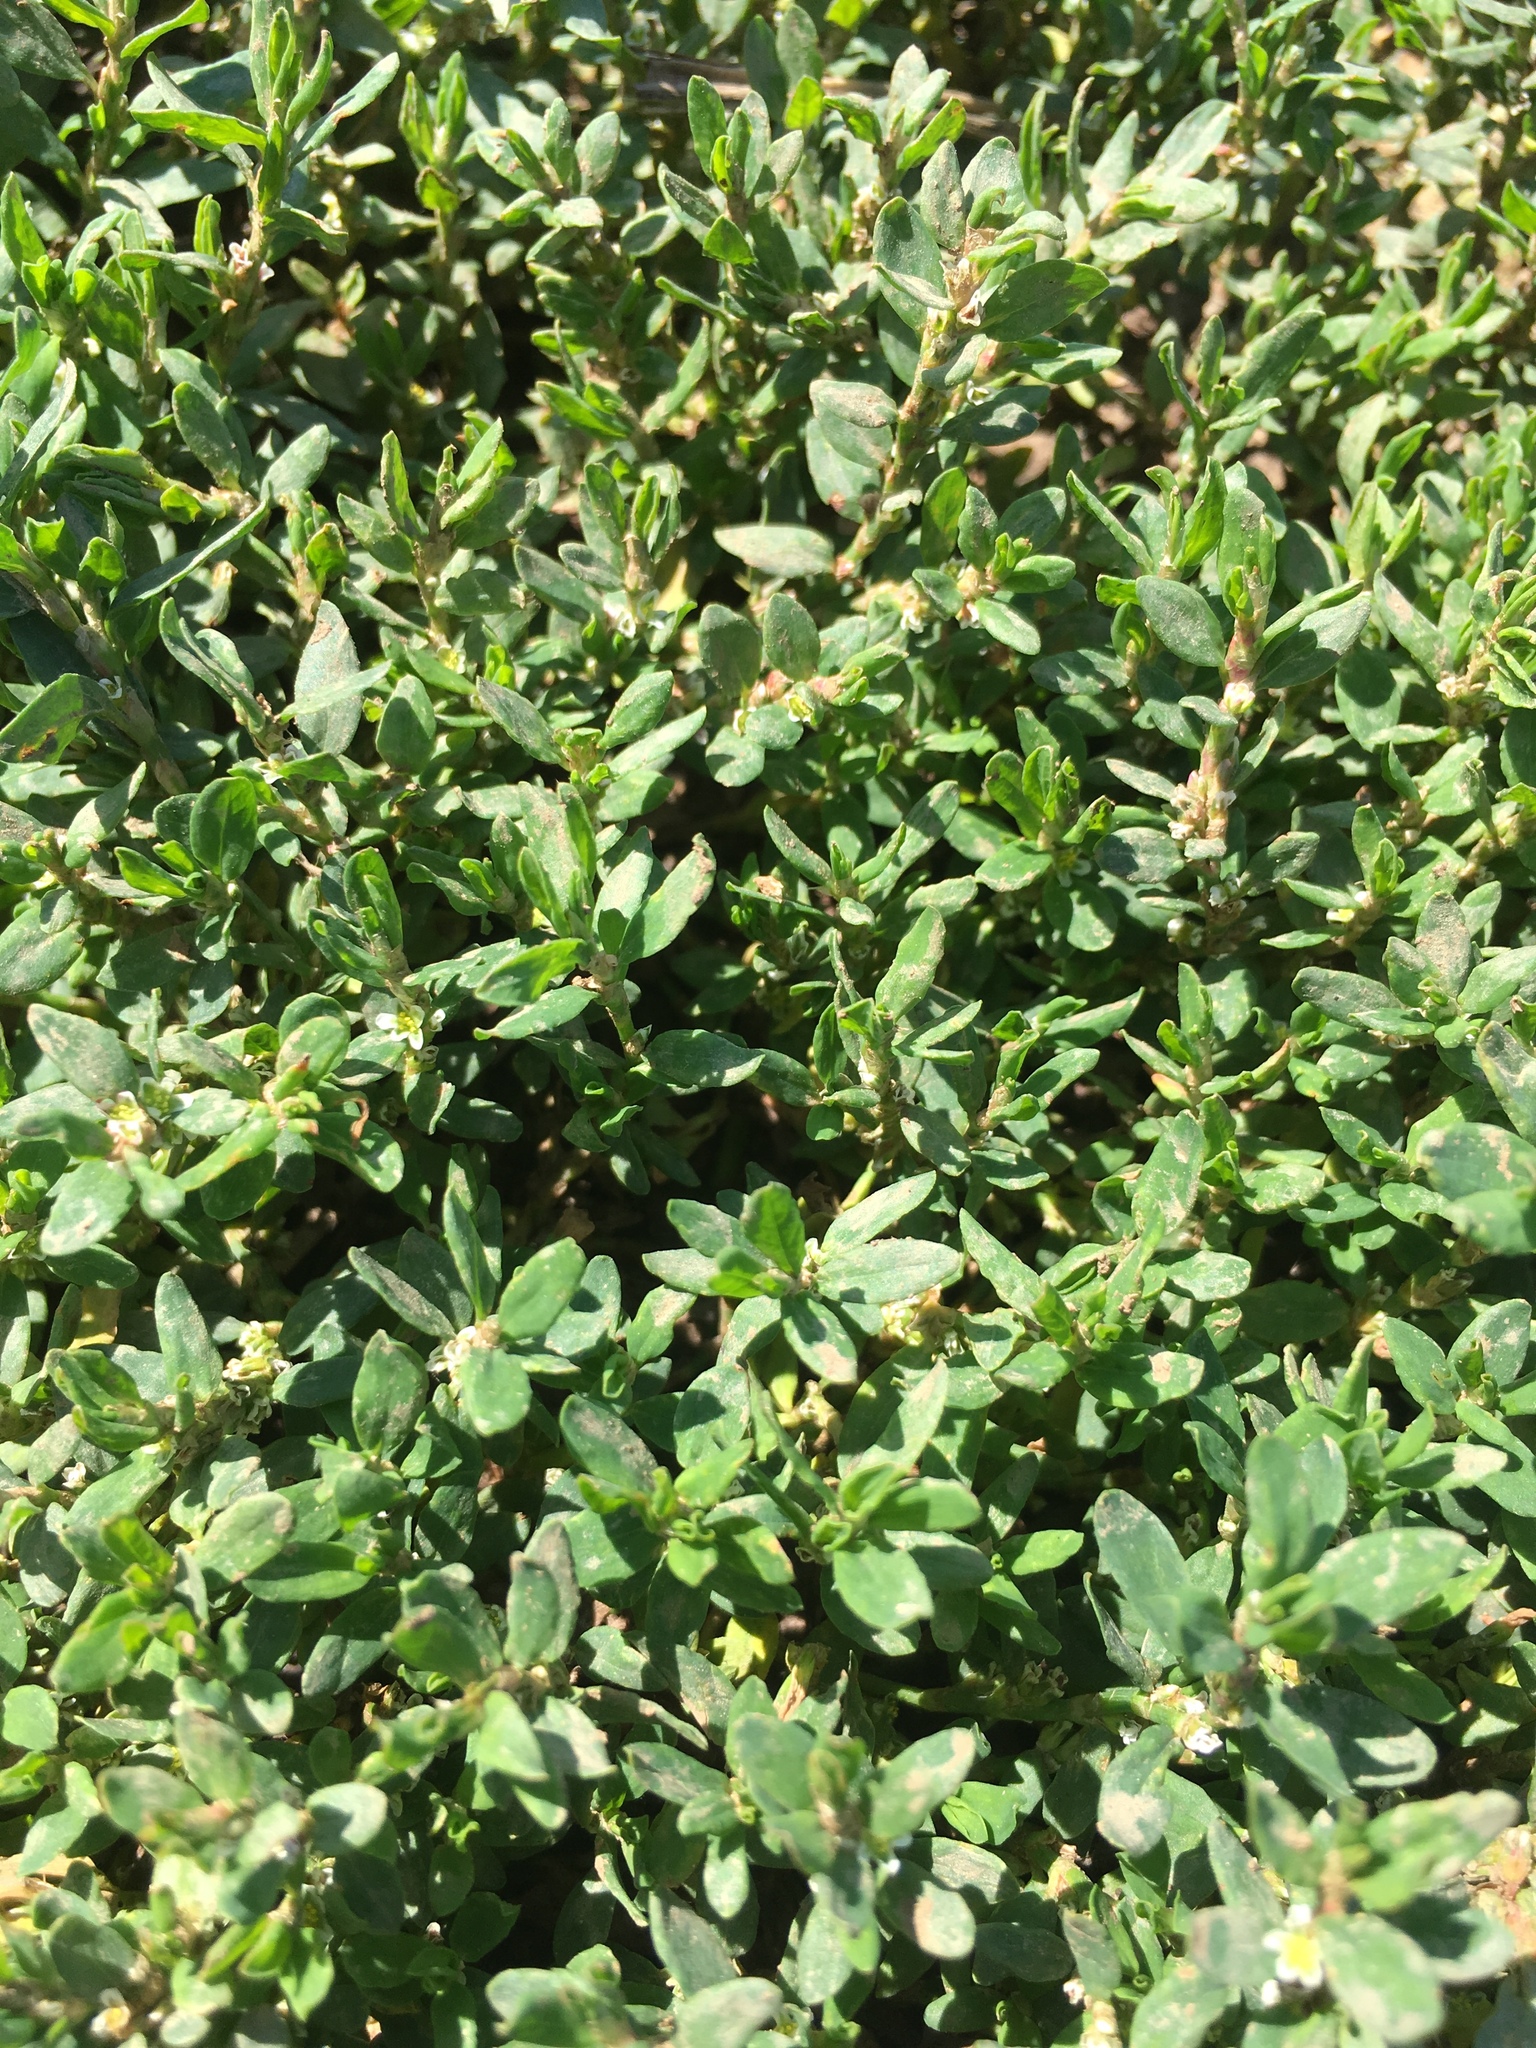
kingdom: Plantae
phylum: Tracheophyta
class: Magnoliopsida
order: Caryophyllales
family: Polygonaceae
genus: Polygonum
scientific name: Polygonum aviculare
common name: Prostrate knotweed
